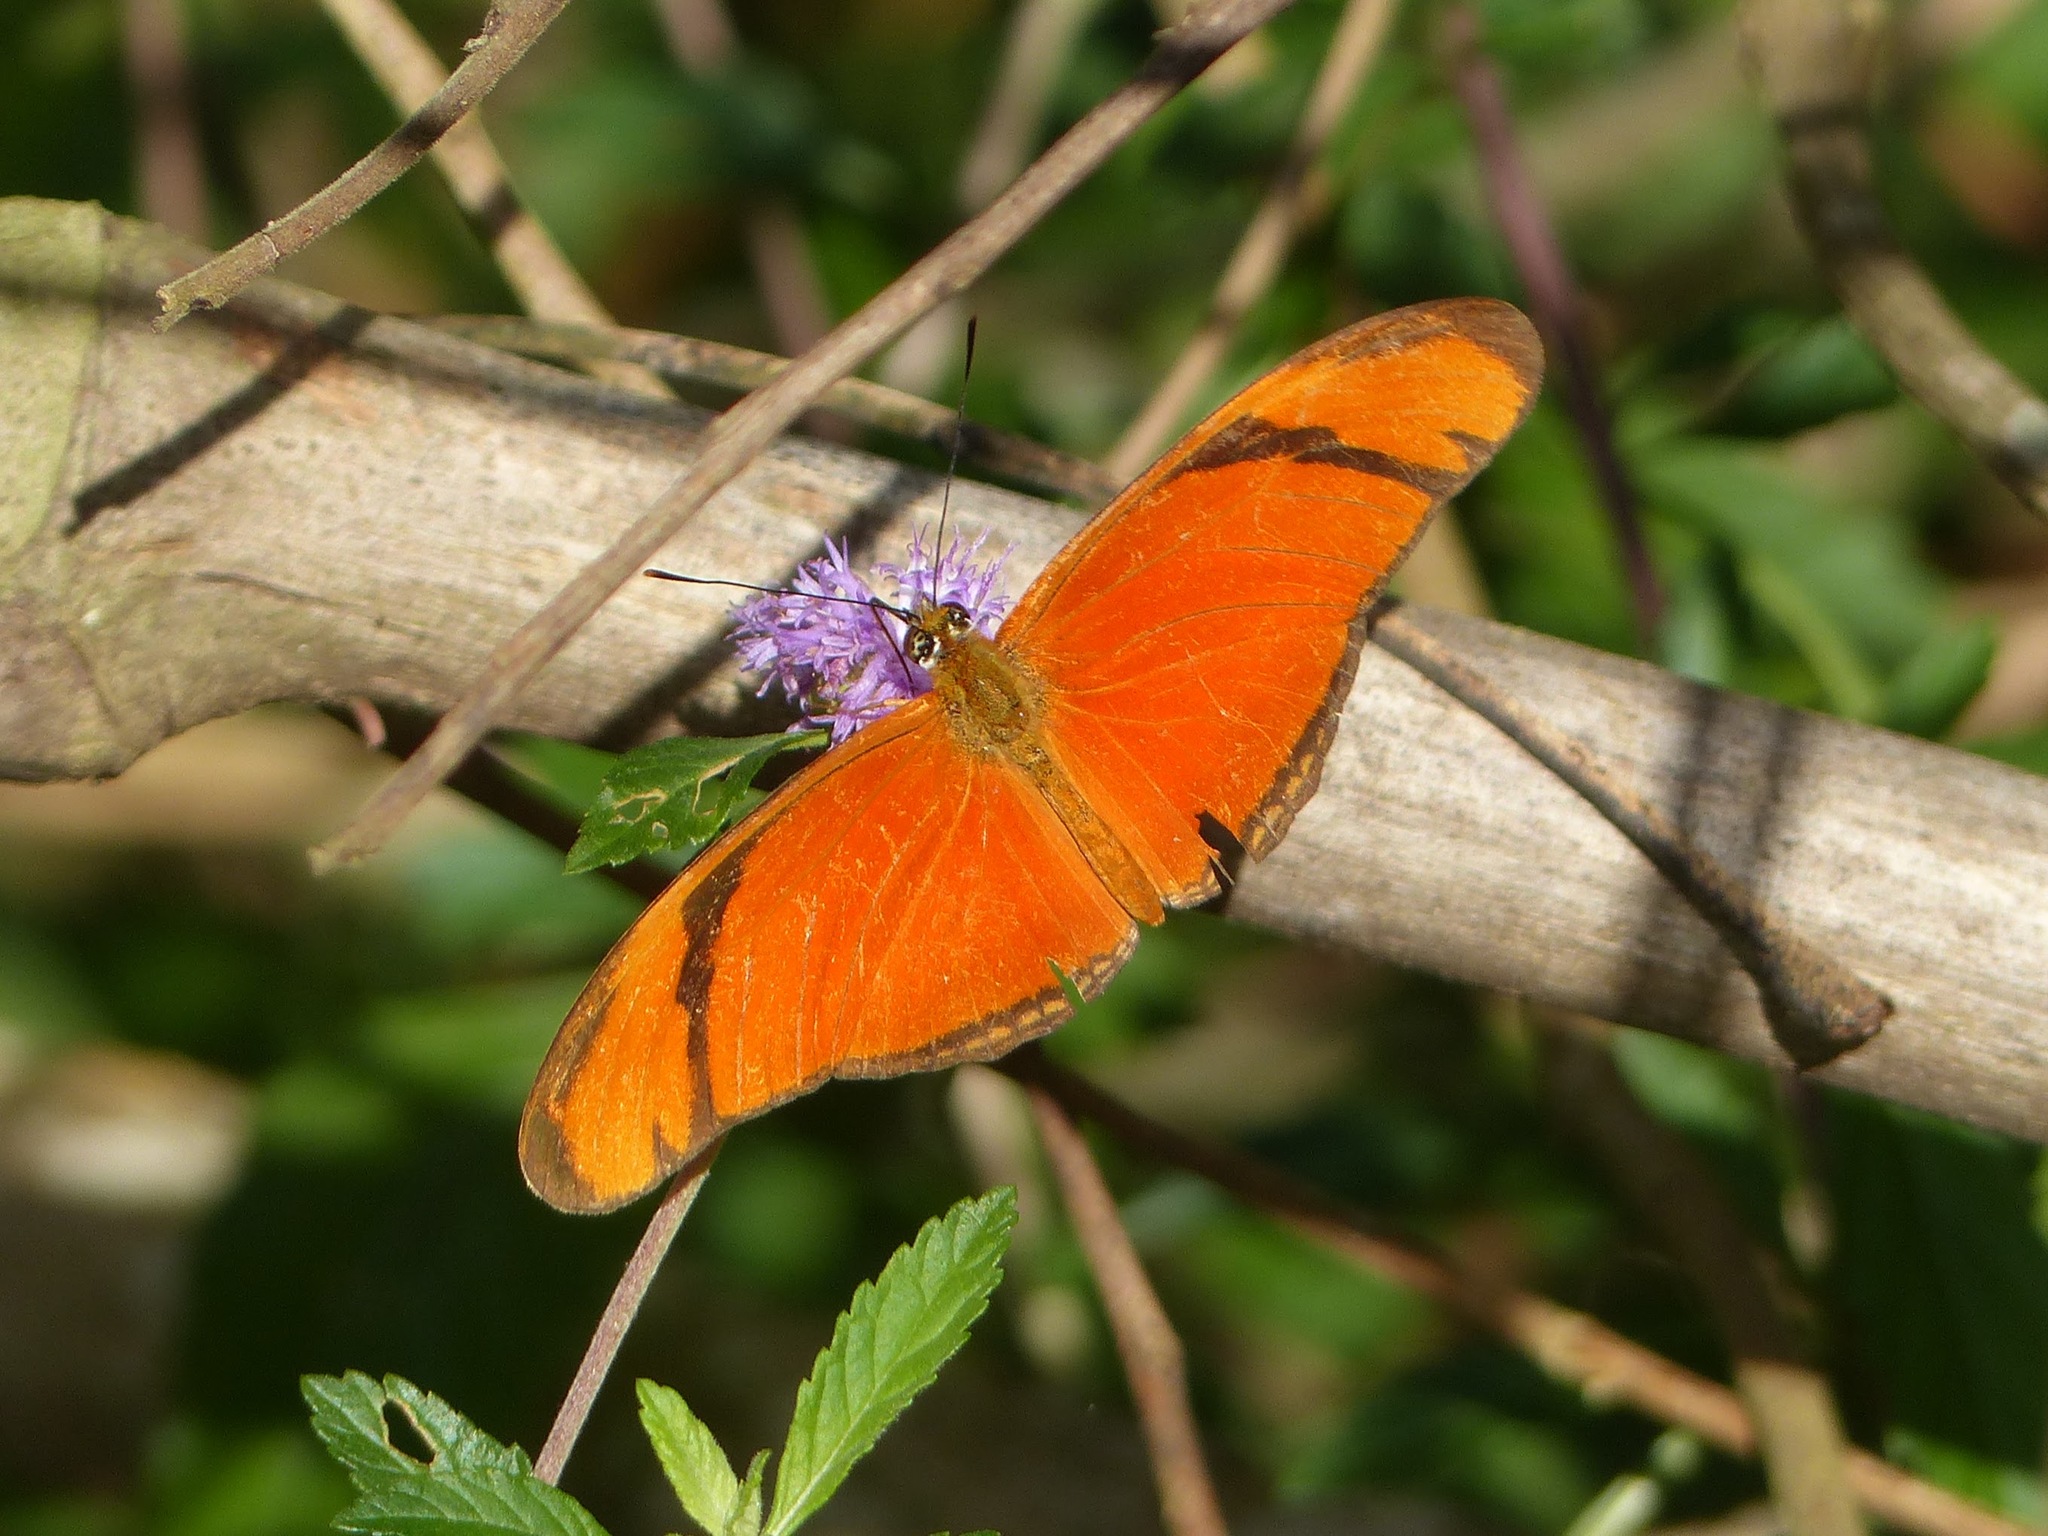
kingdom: Animalia
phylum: Arthropoda
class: Insecta
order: Lepidoptera
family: Nymphalidae
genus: Dryas
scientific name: Dryas iulia
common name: Flambeau
